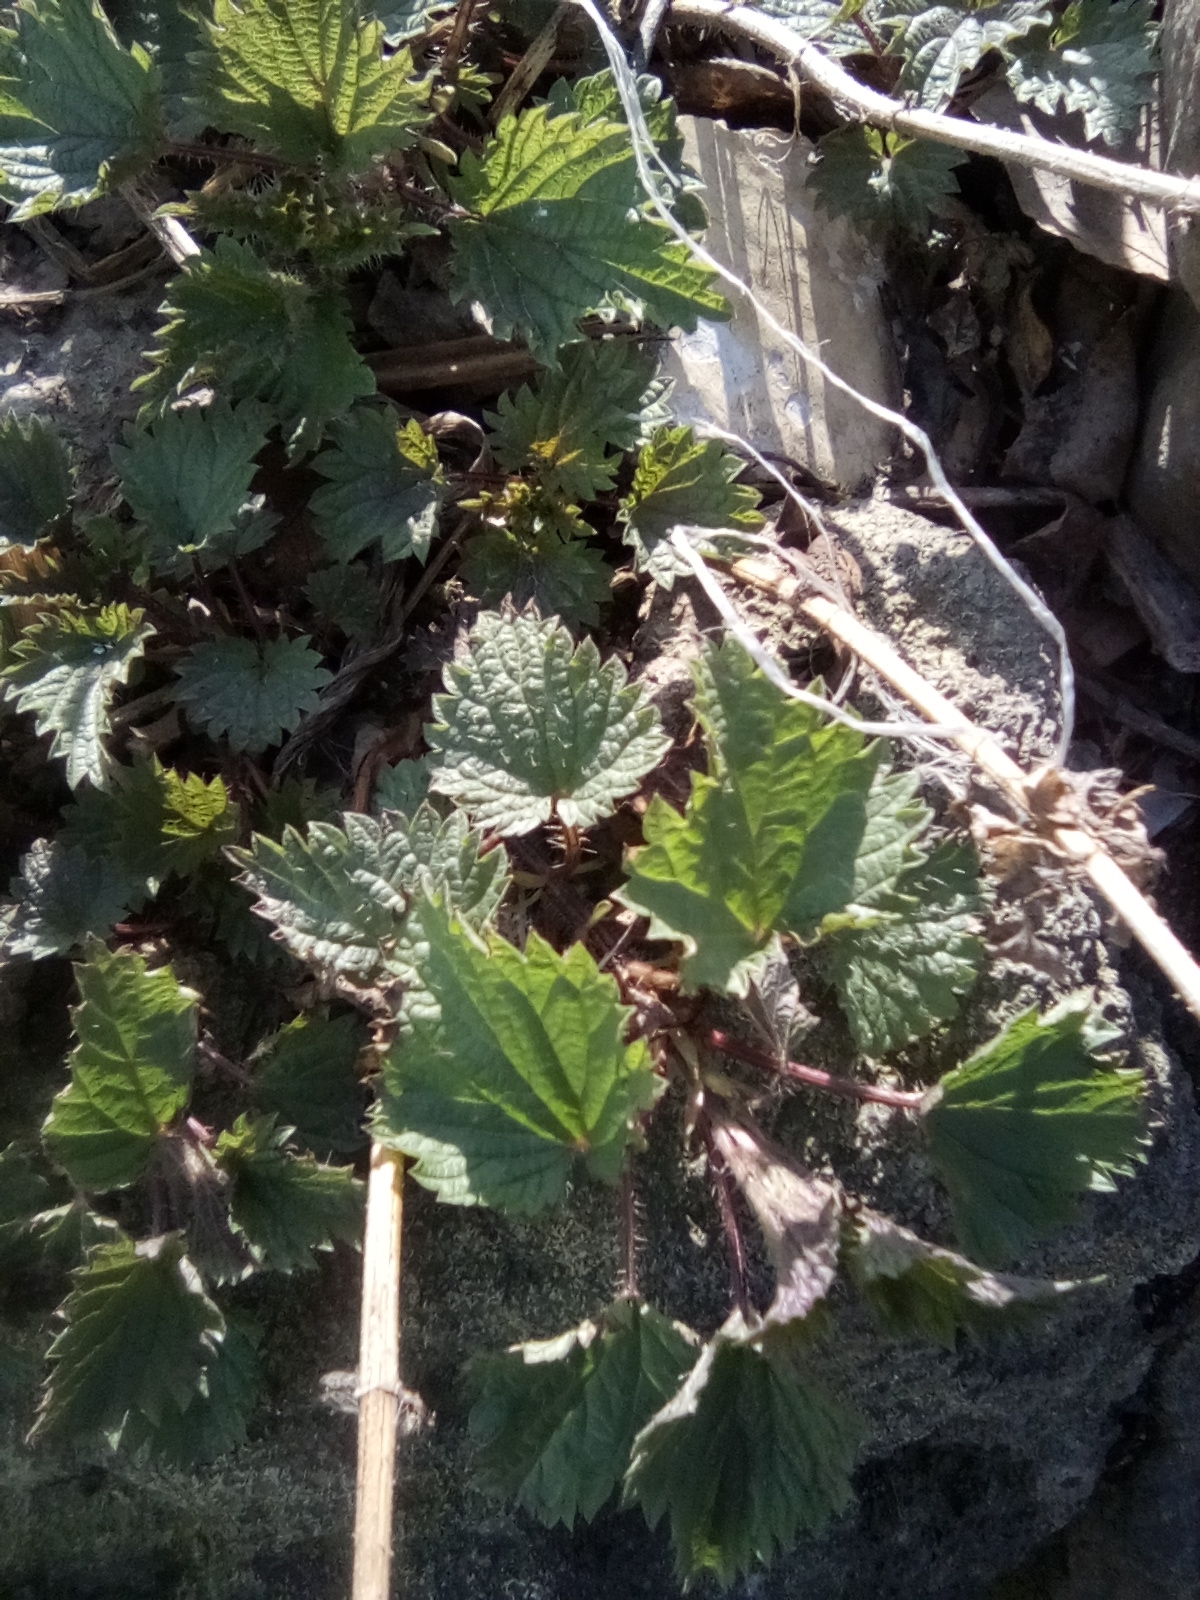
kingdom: Plantae
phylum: Tracheophyta
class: Magnoliopsida
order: Rosales
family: Urticaceae
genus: Urtica
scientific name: Urtica dioica
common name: Common nettle
